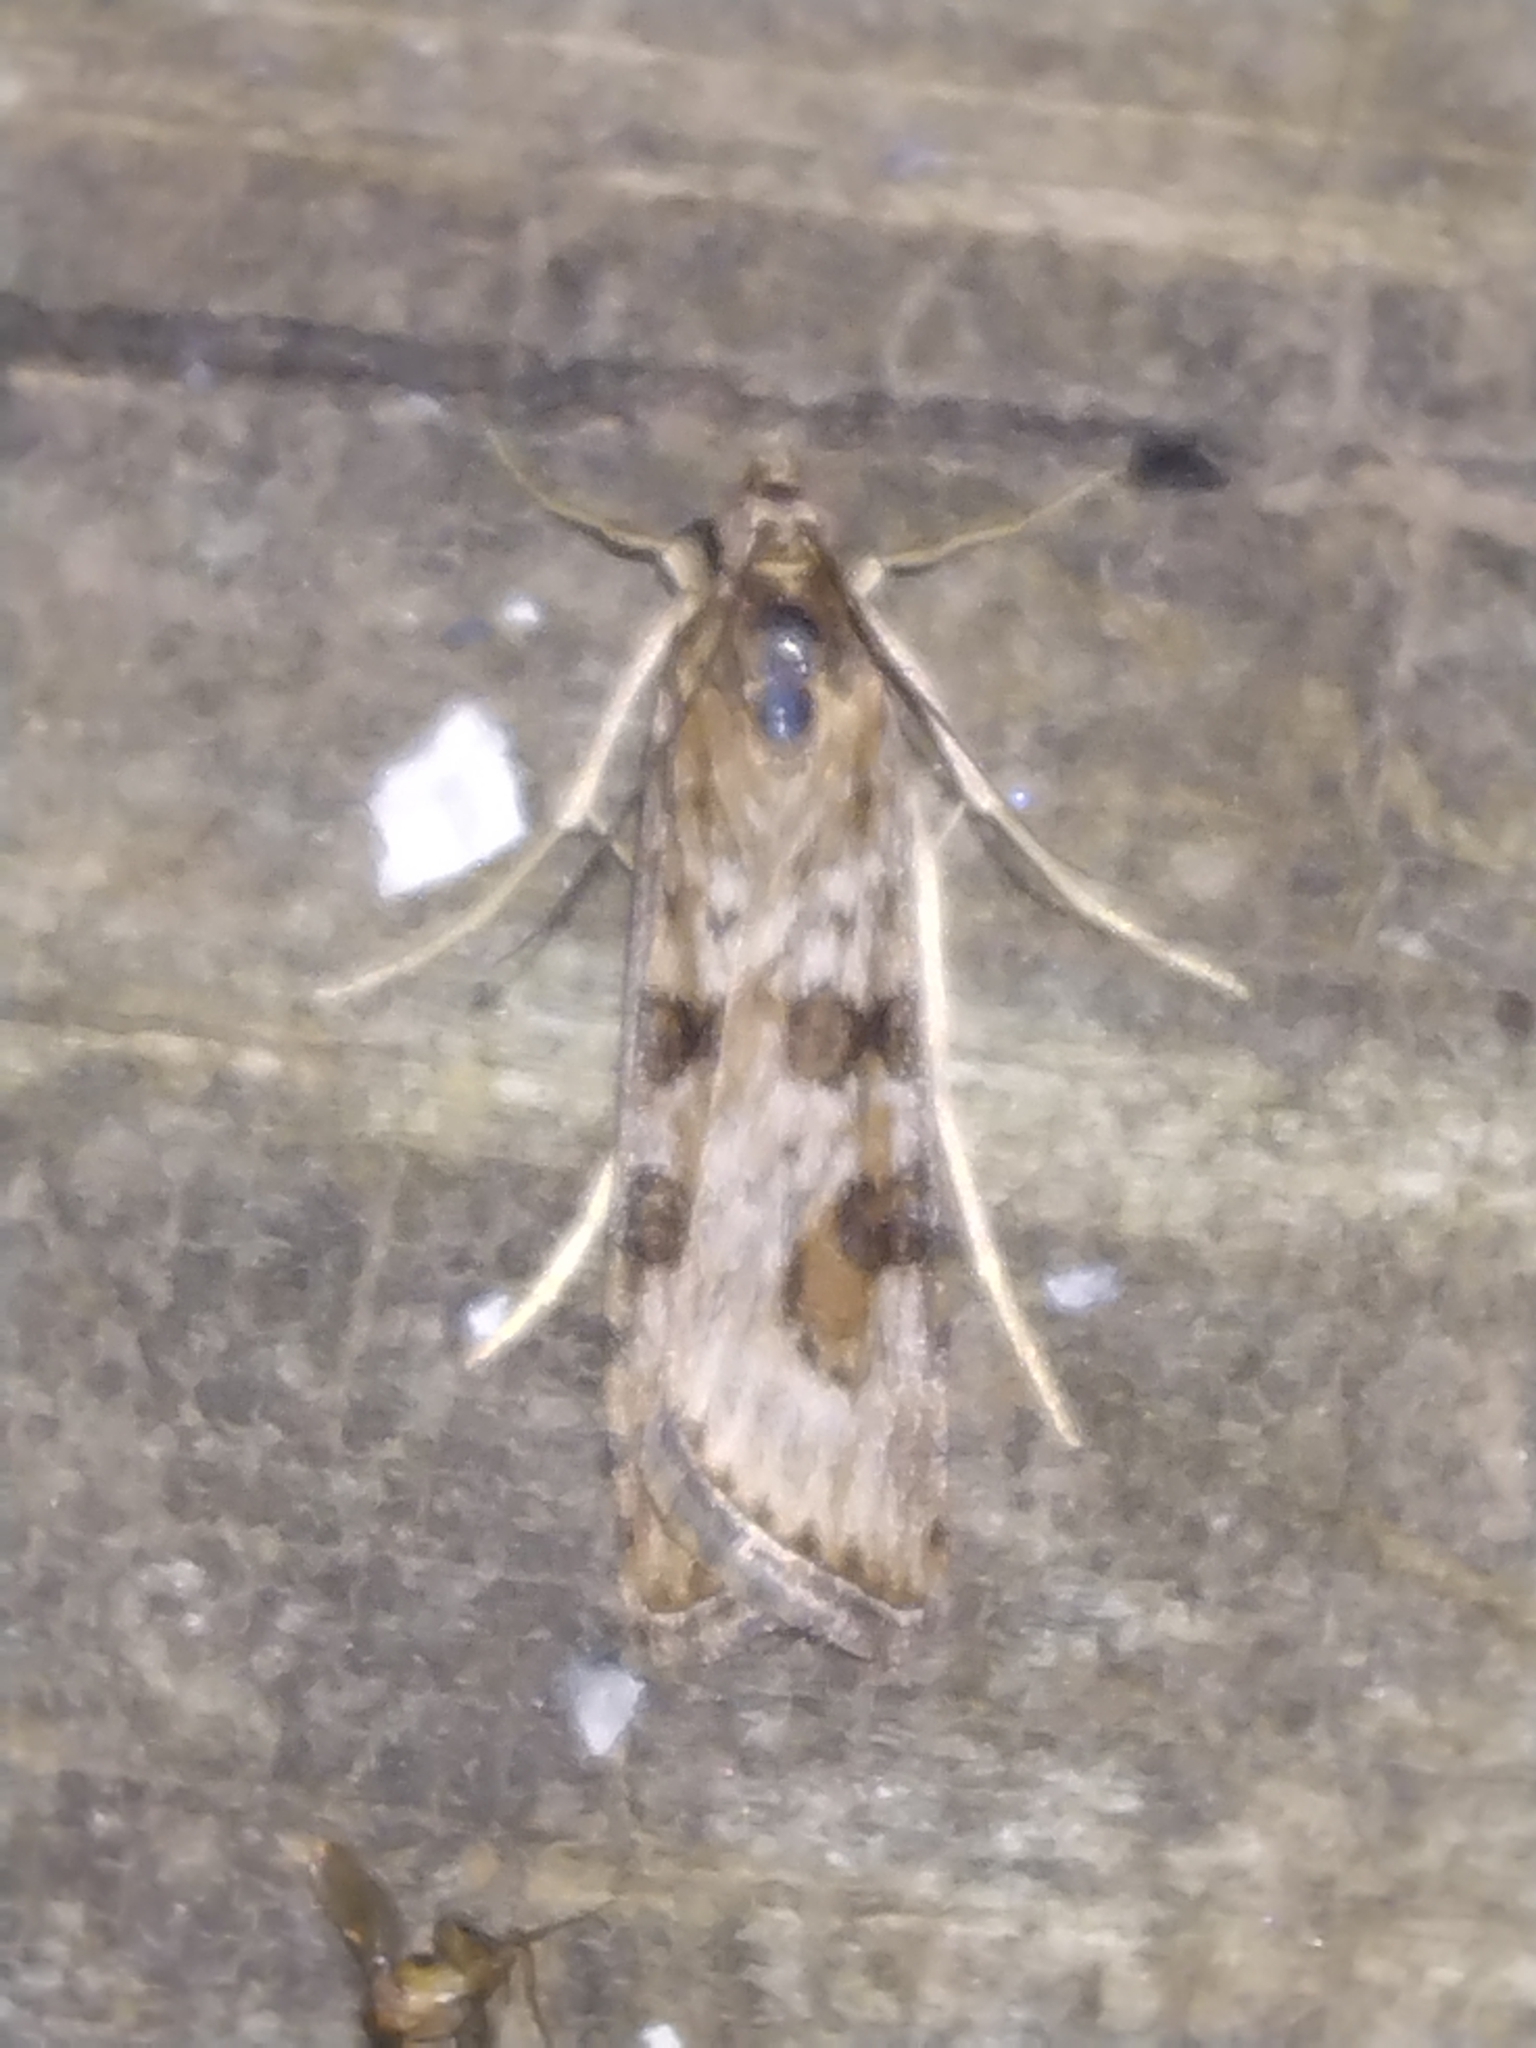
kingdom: Animalia
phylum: Arthropoda
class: Insecta
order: Lepidoptera
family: Crambidae
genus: Nomophila
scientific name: Nomophila nearctica
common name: American rush veneer
